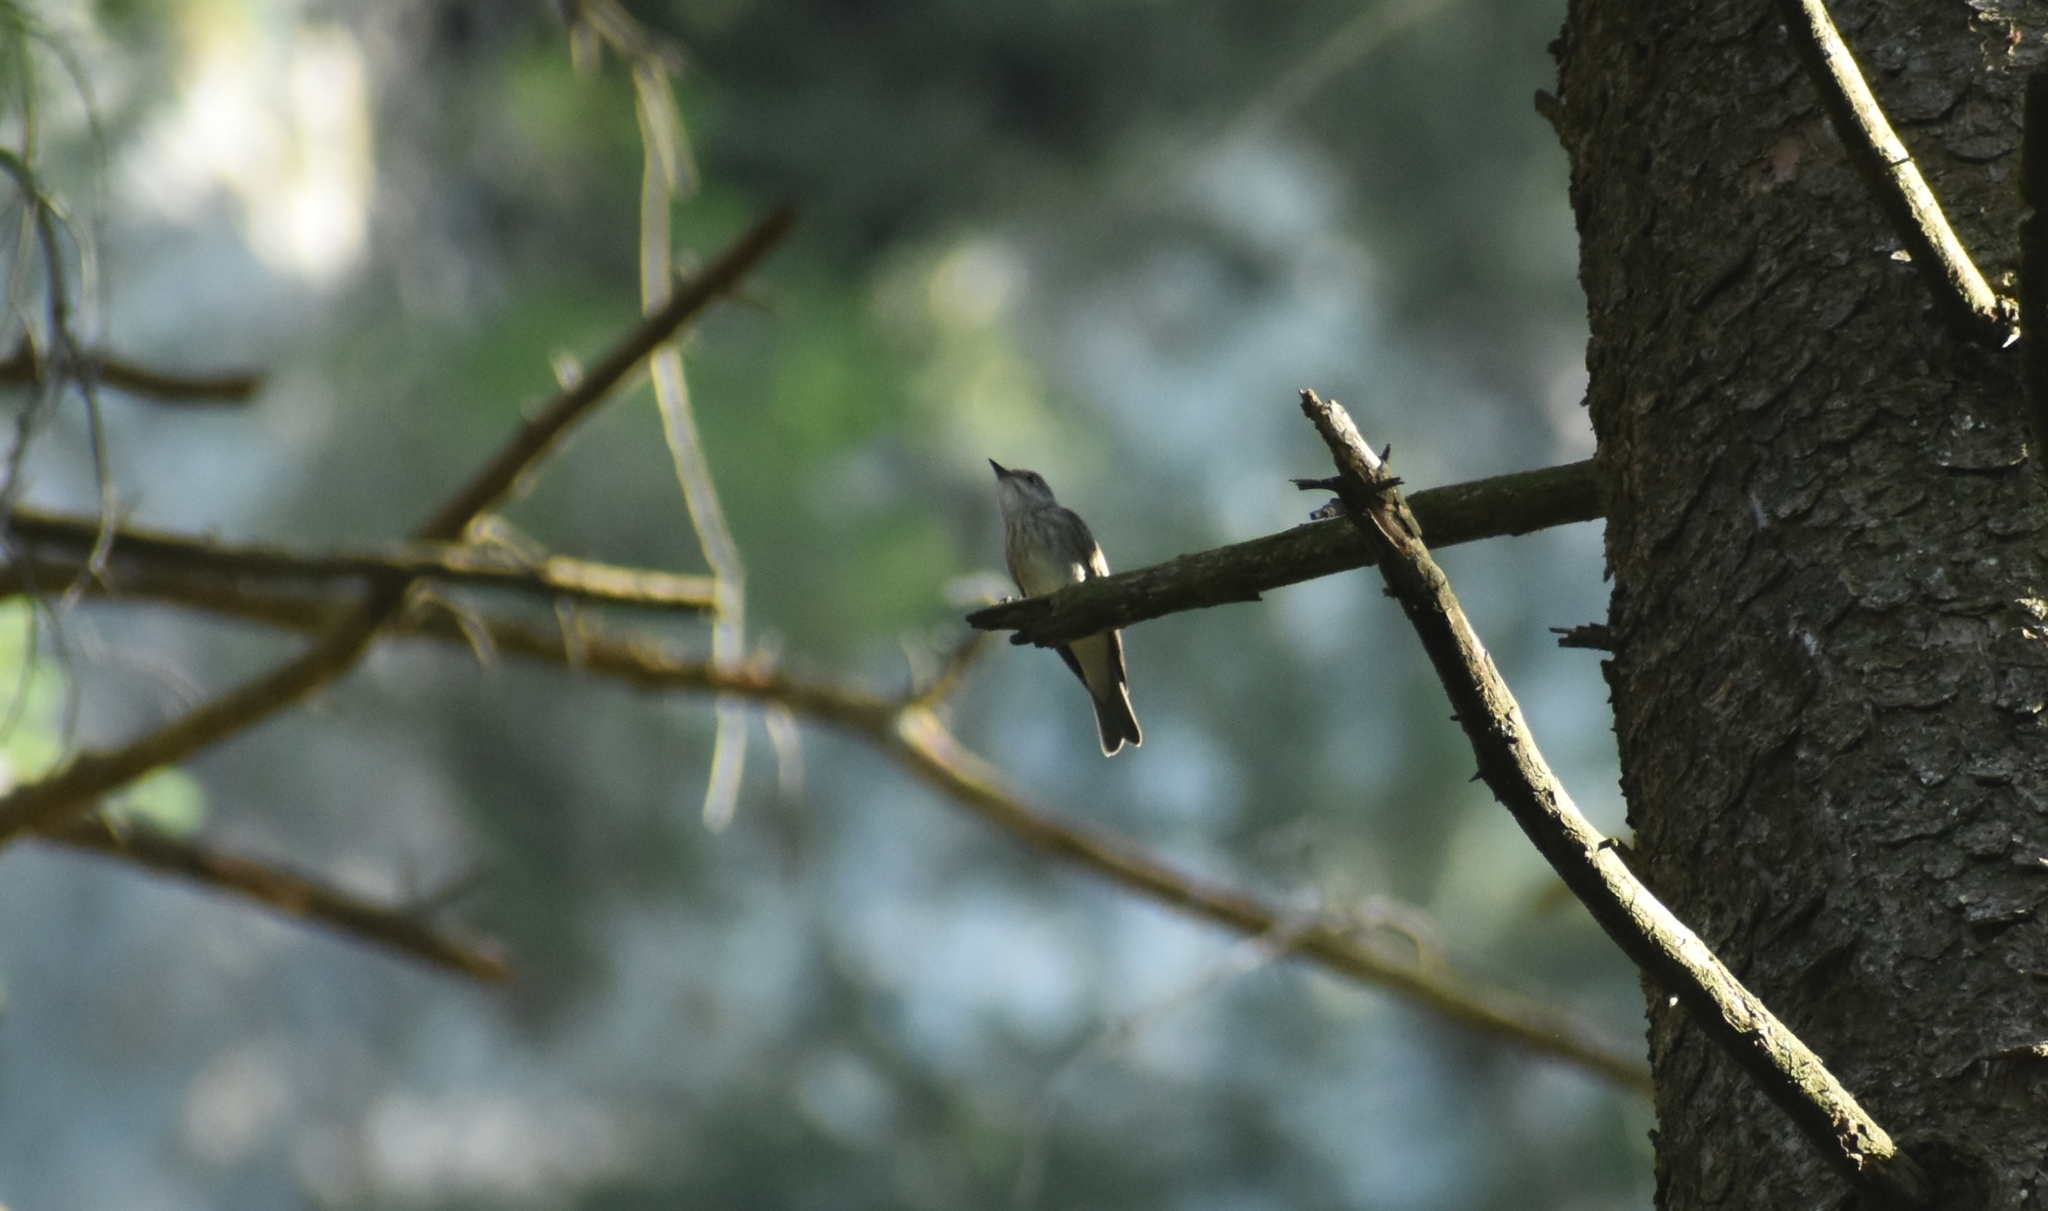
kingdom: Animalia
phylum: Chordata
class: Aves
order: Passeriformes
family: Muscicapidae
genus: Muscicapa
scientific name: Muscicapa striata
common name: Spotted flycatcher
